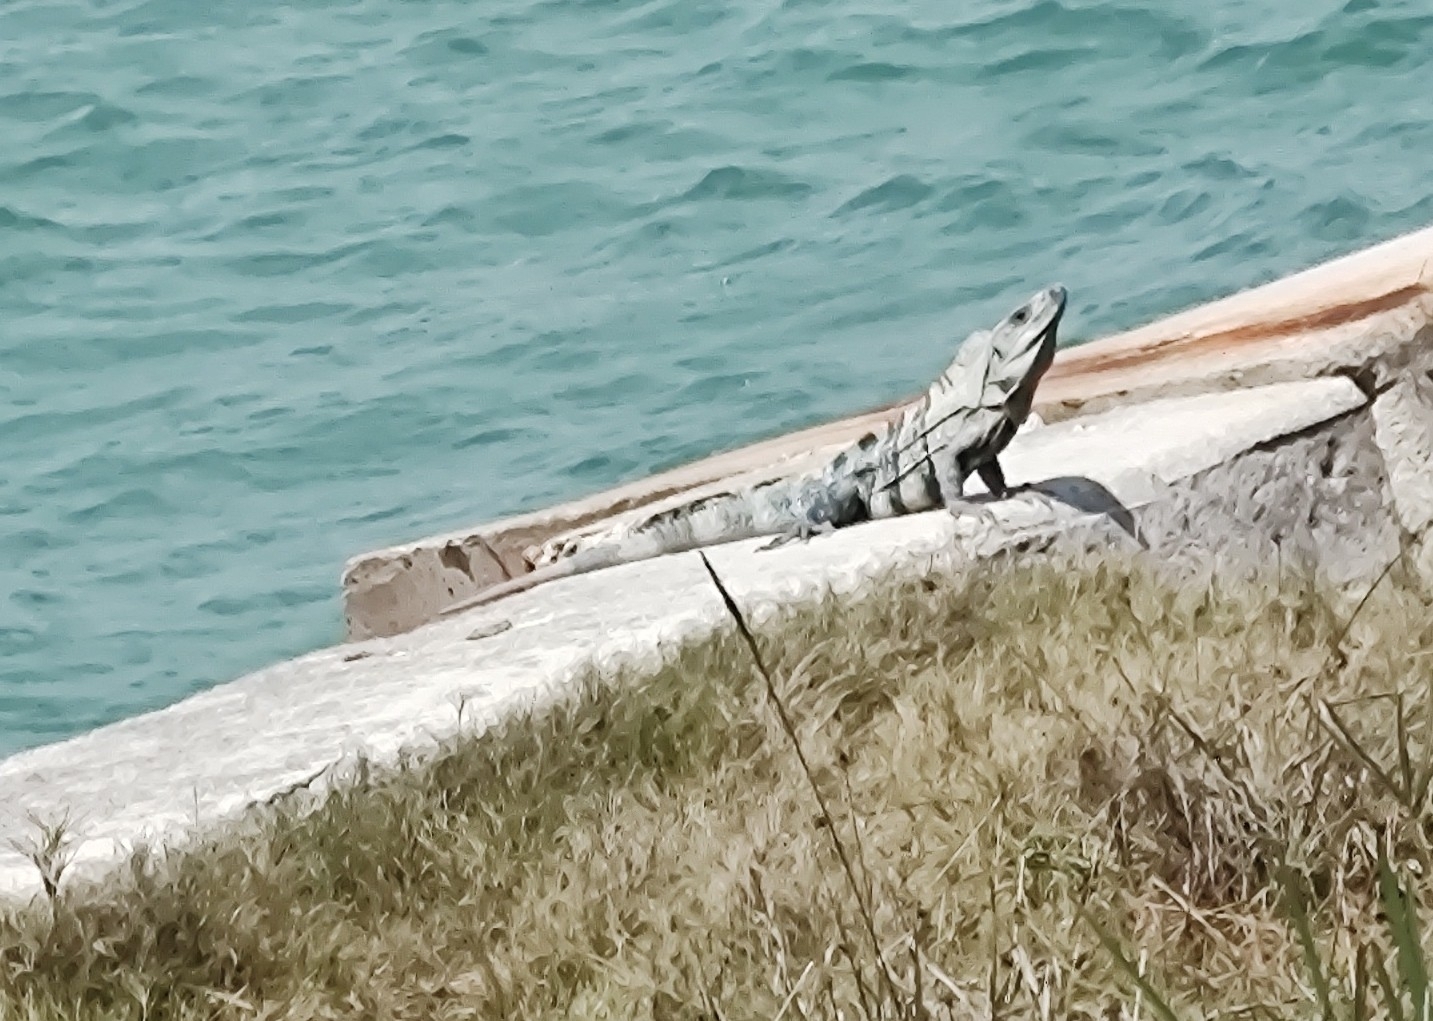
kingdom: Animalia
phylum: Chordata
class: Squamata
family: Iguanidae
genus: Ctenosaura
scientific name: Ctenosaura similis
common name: Black spiny-tailed iguana
